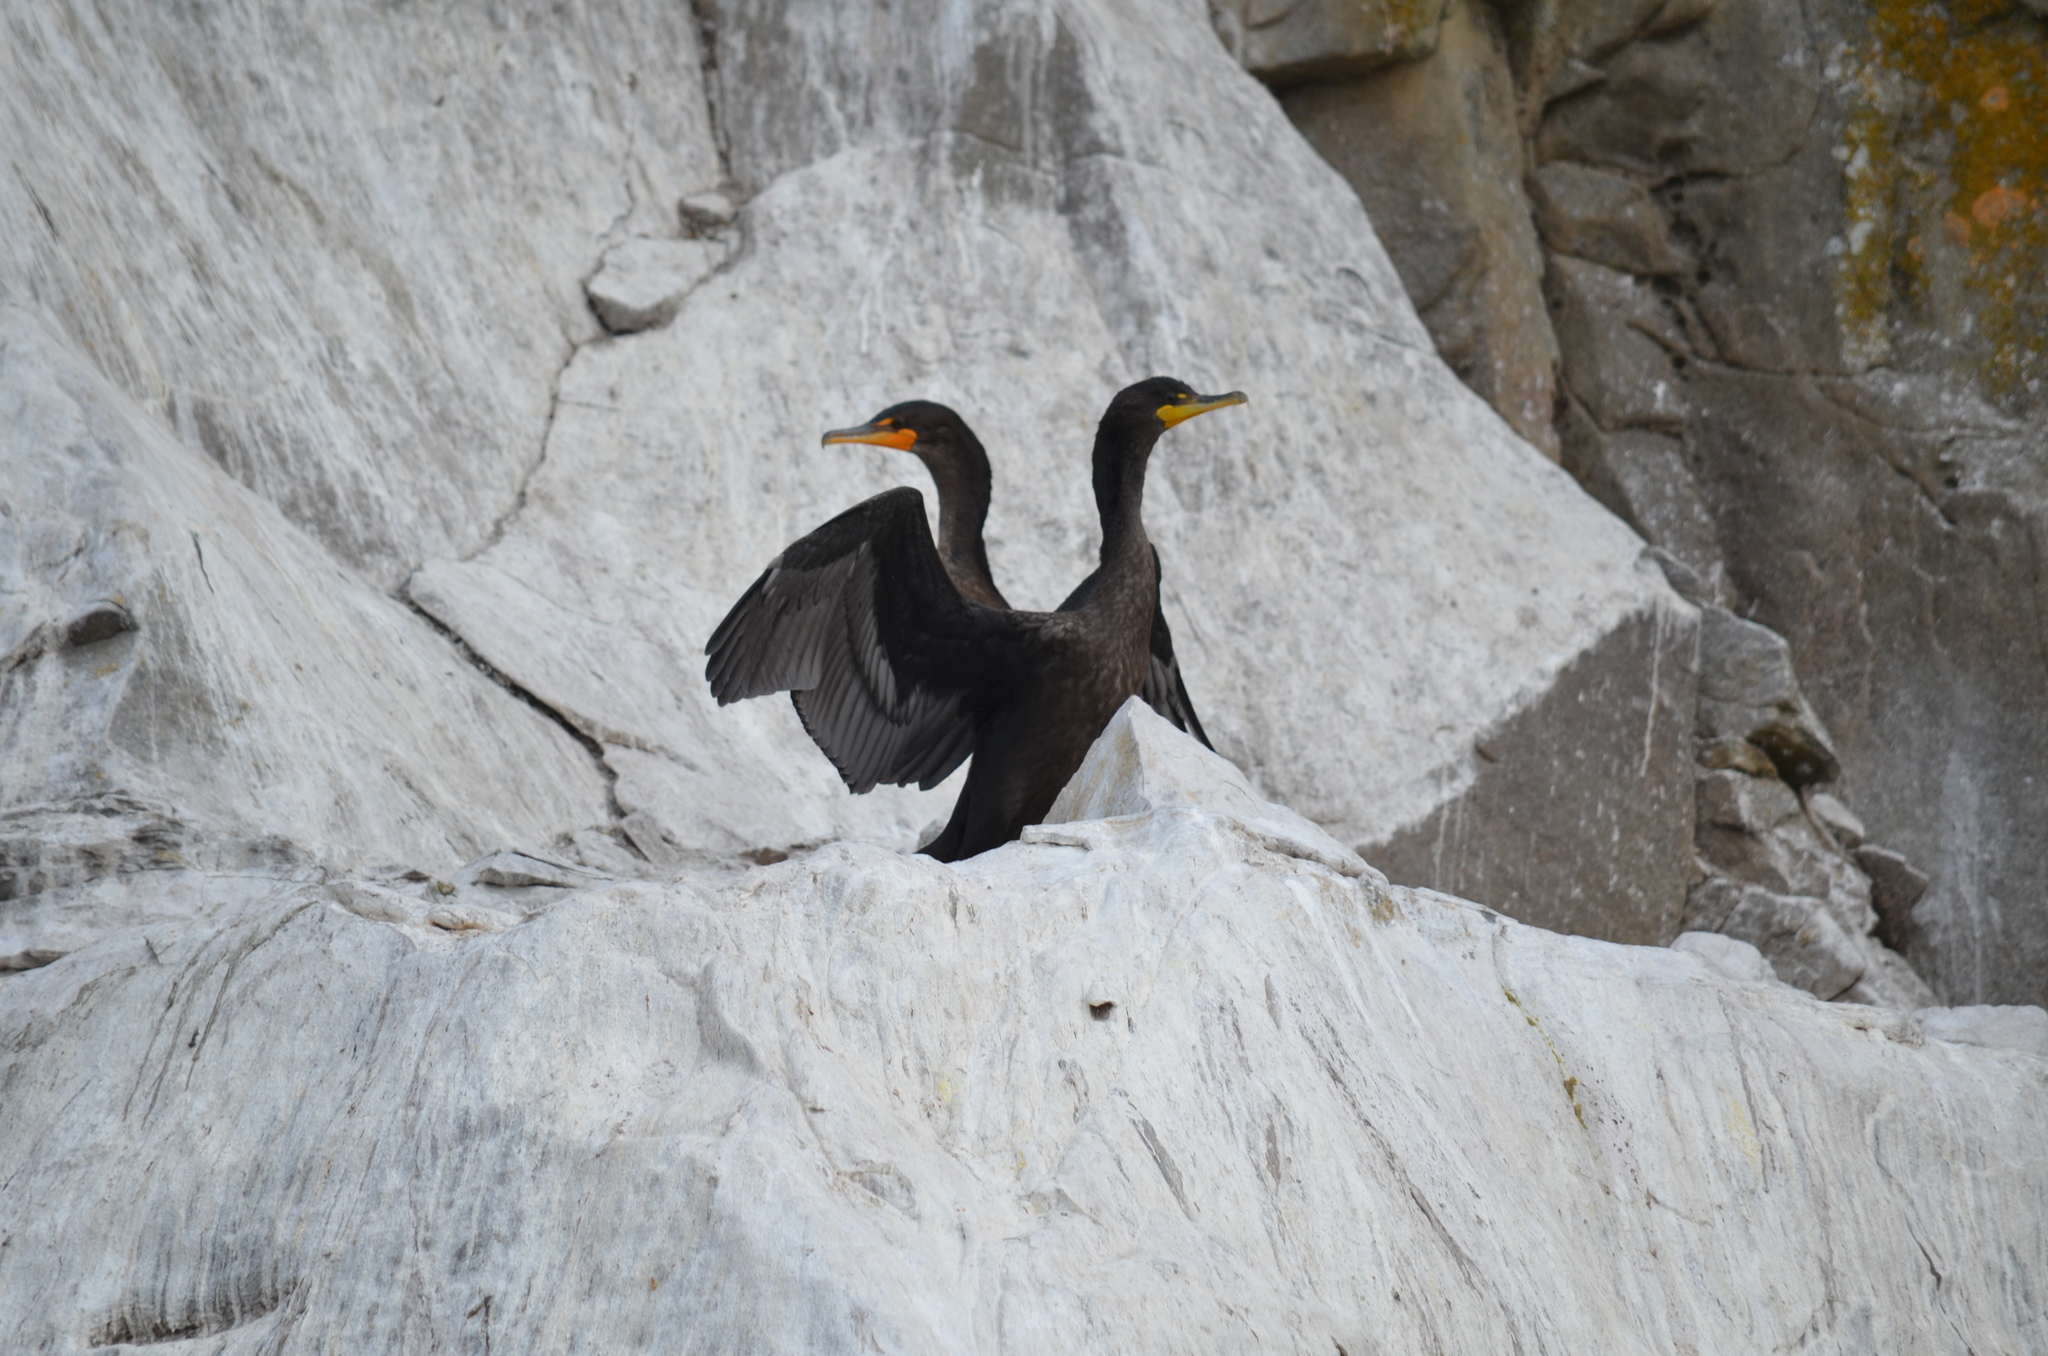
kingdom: Animalia
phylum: Chordata
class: Aves
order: Suliformes
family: Phalacrocoracidae
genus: Phalacrocorax
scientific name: Phalacrocorax auritus
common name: Double-crested cormorant
